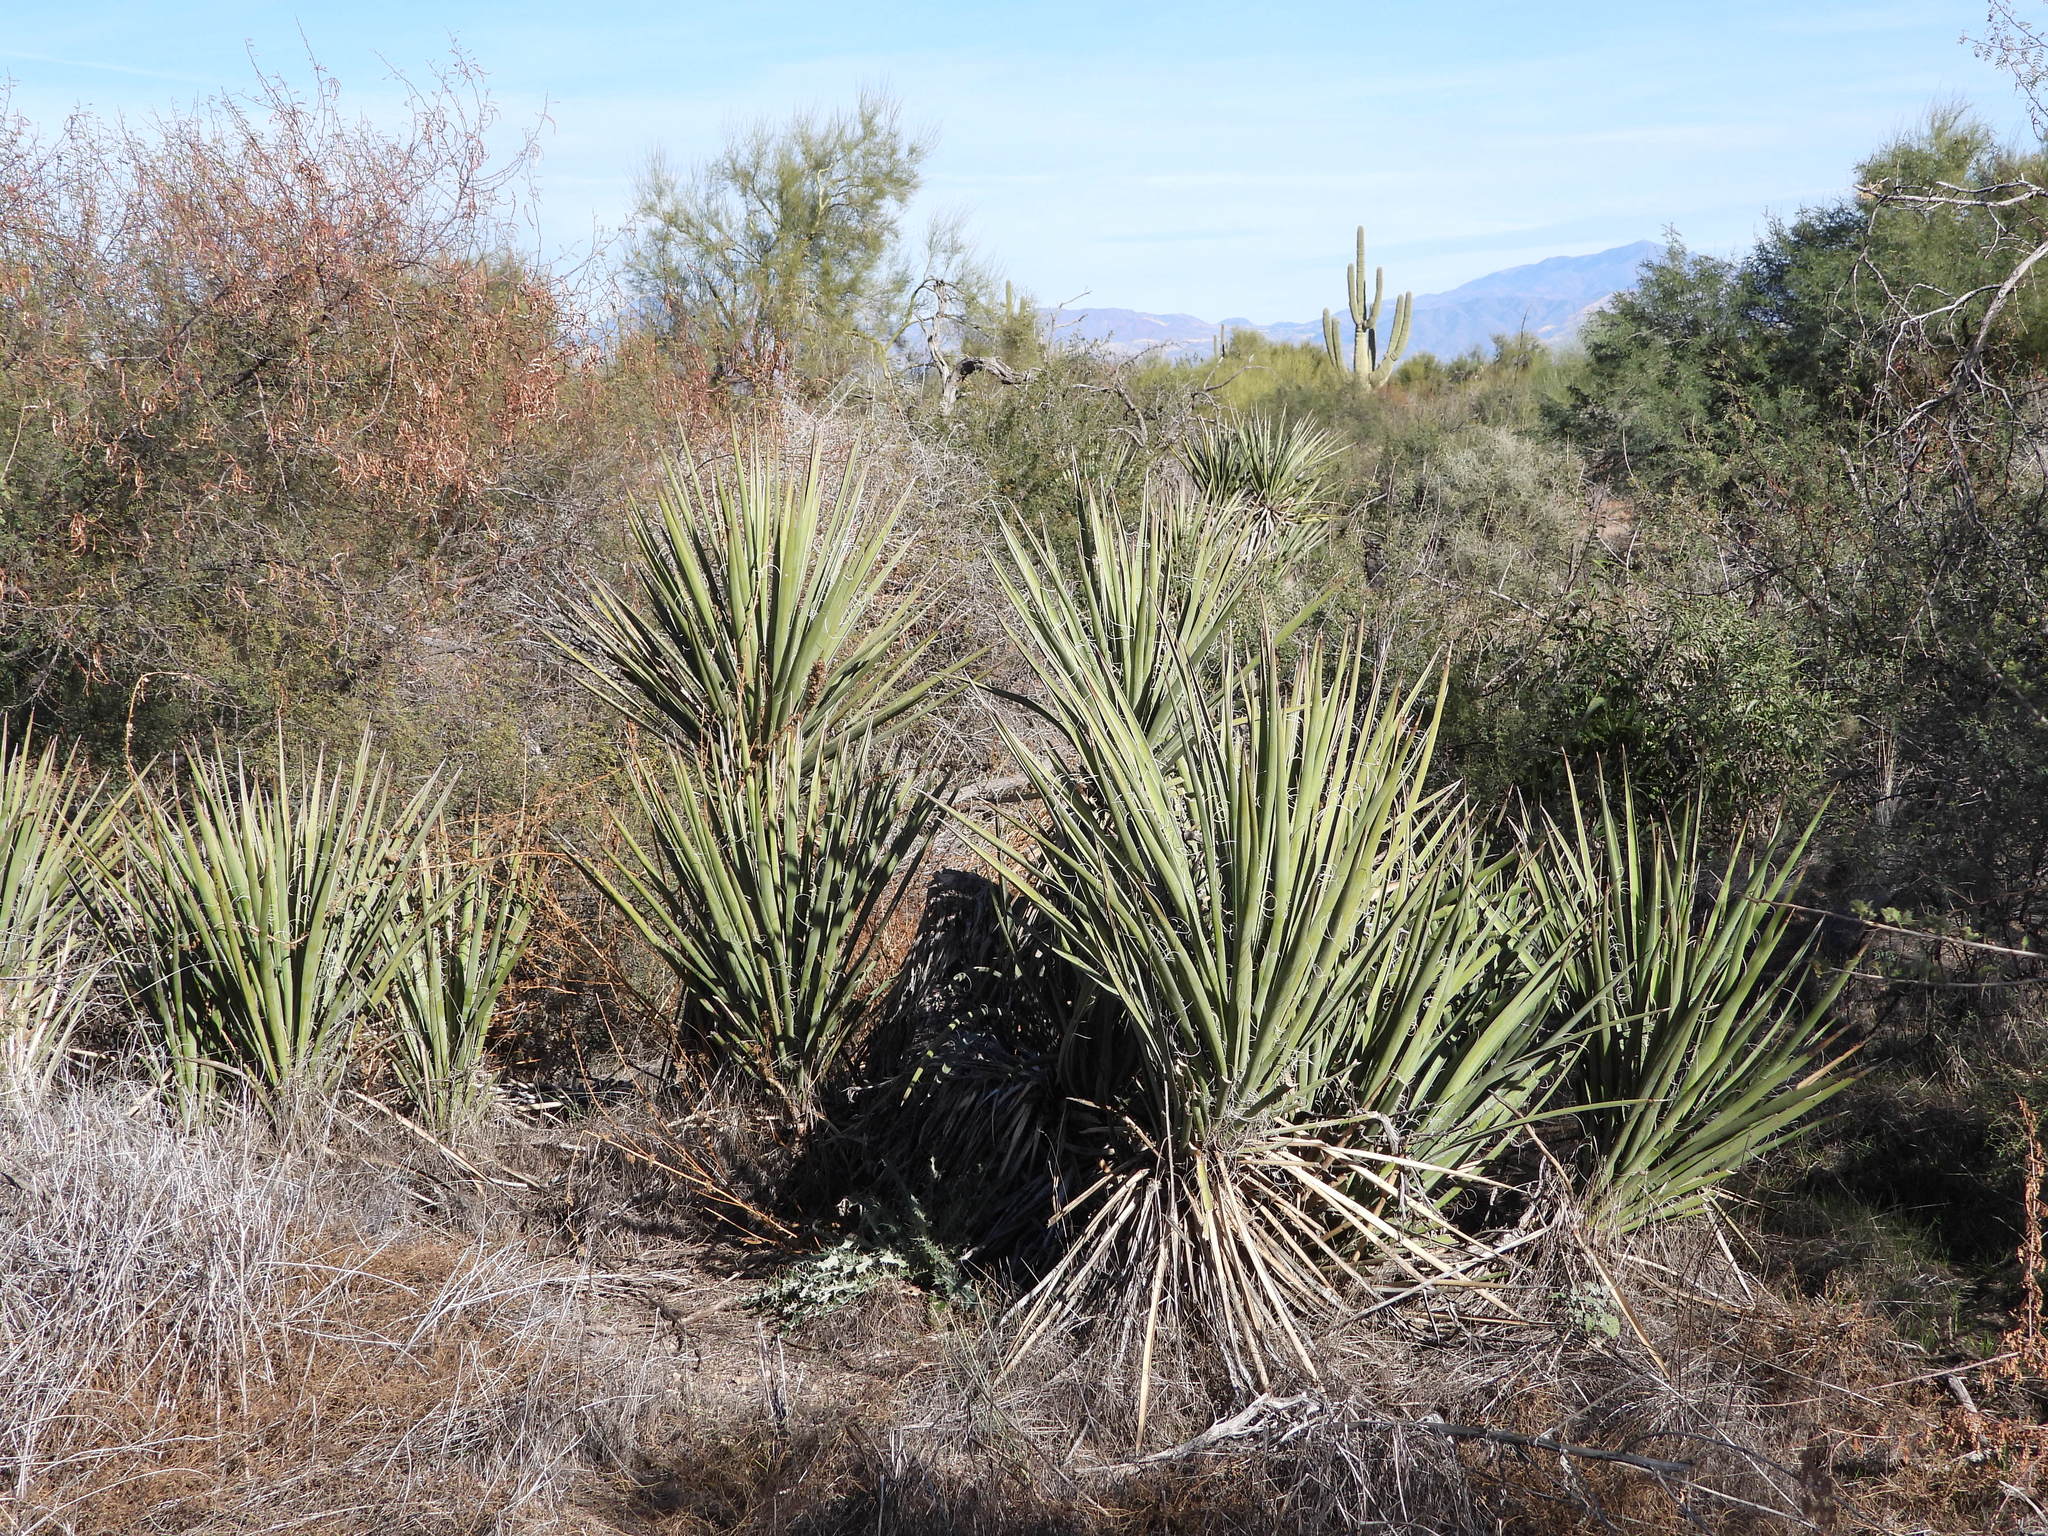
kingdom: Plantae
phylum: Tracheophyta
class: Liliopsida
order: Asparagales
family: Asparagaceae
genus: Yucca
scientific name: Yucca baccata
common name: Banana yucca
